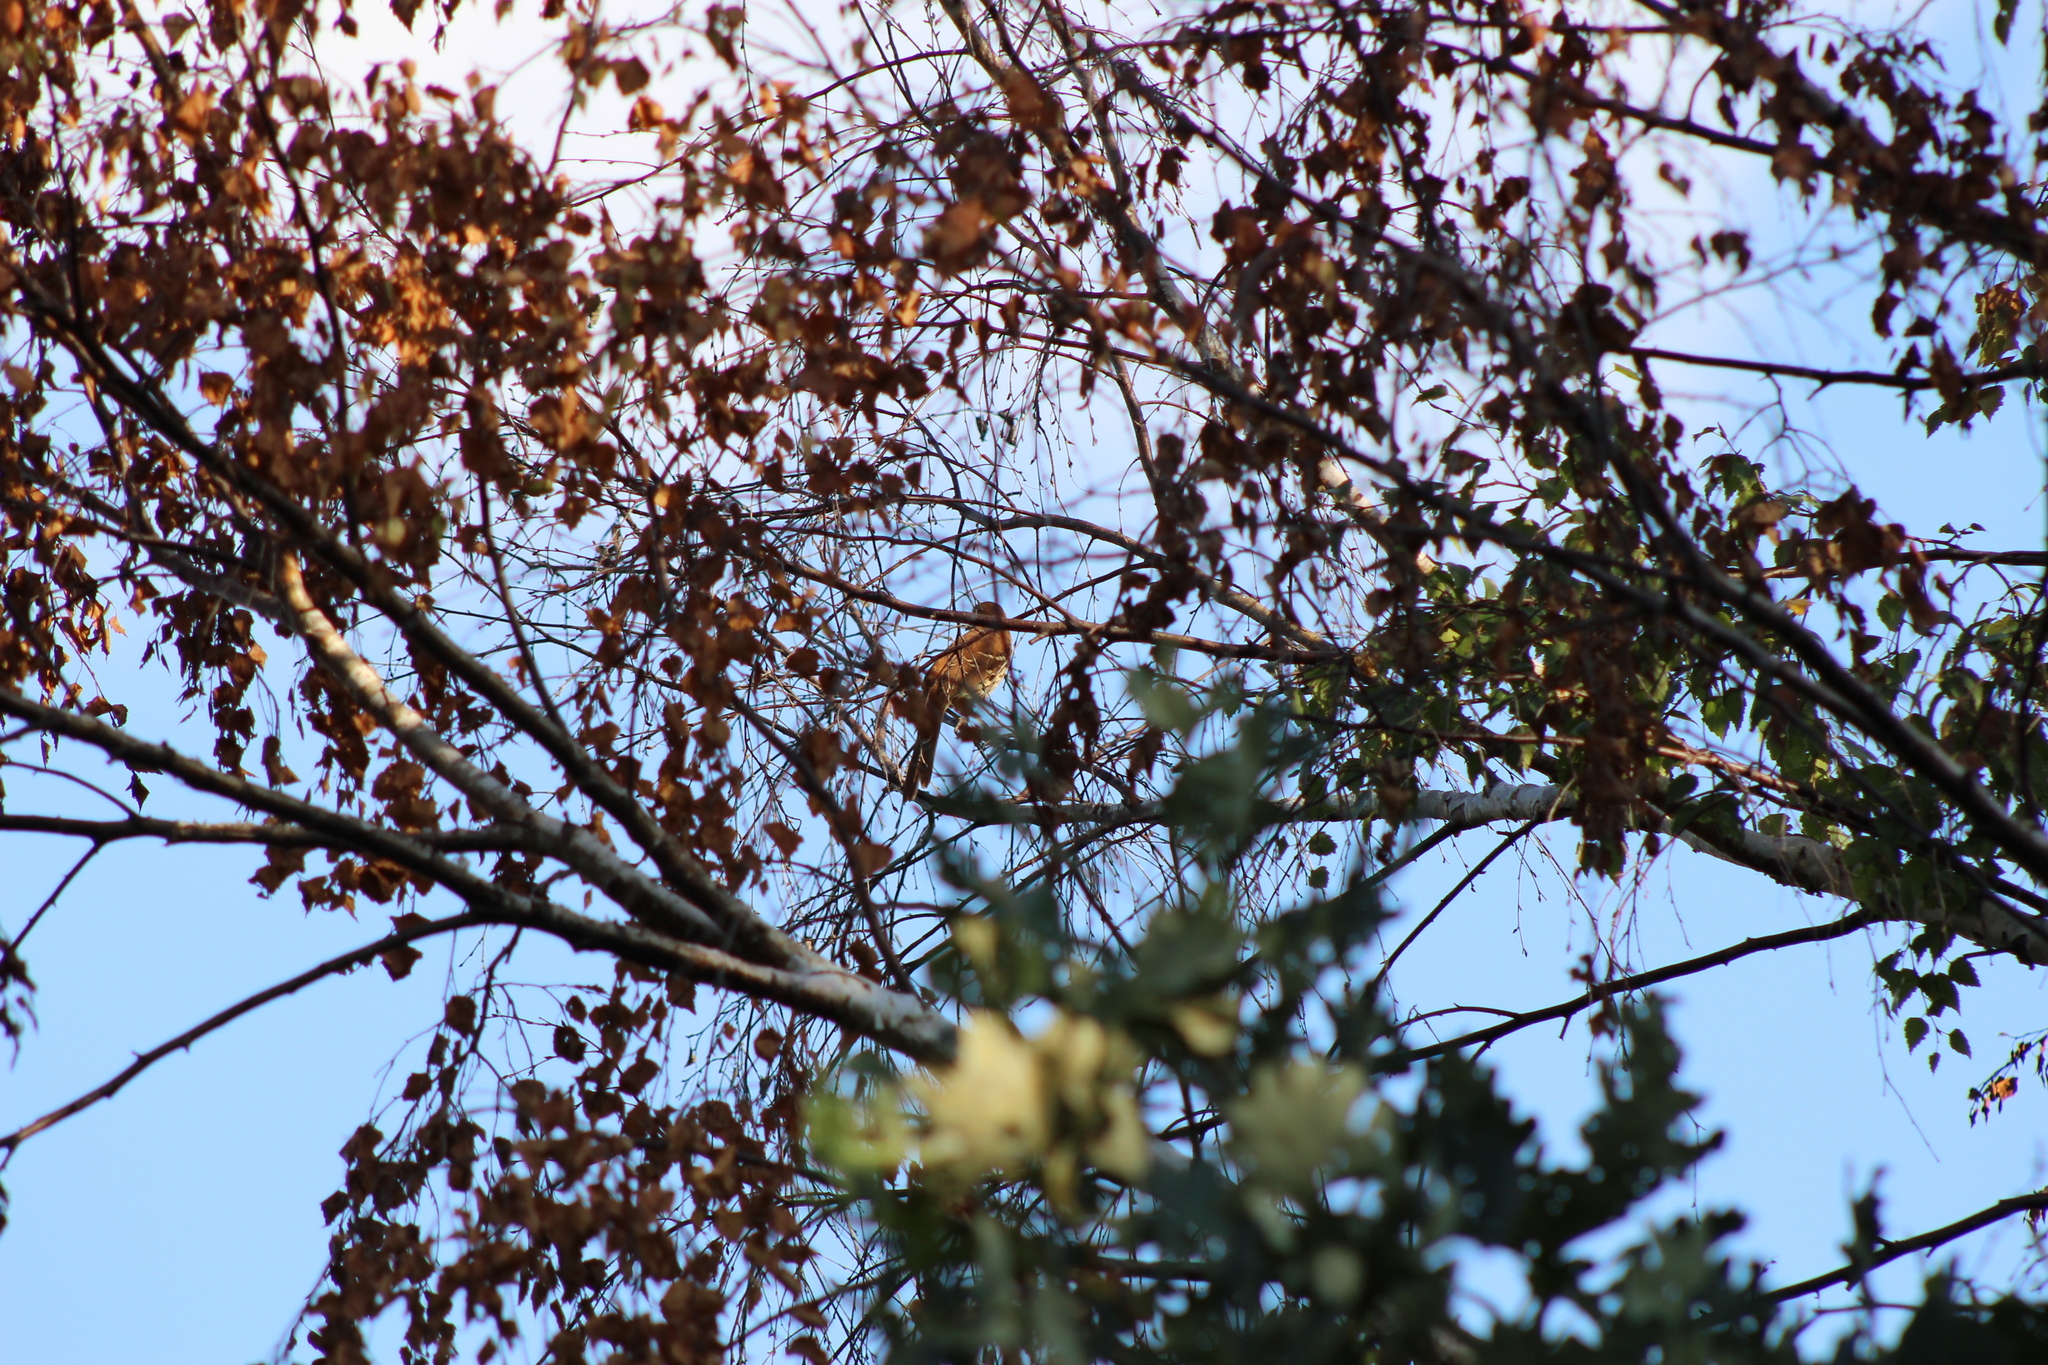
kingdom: Animalia
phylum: Chordata
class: Aves
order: Passeriformes
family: Mimidae
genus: Toxostoma
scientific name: Toxostoma rufum
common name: Brown thrasher
